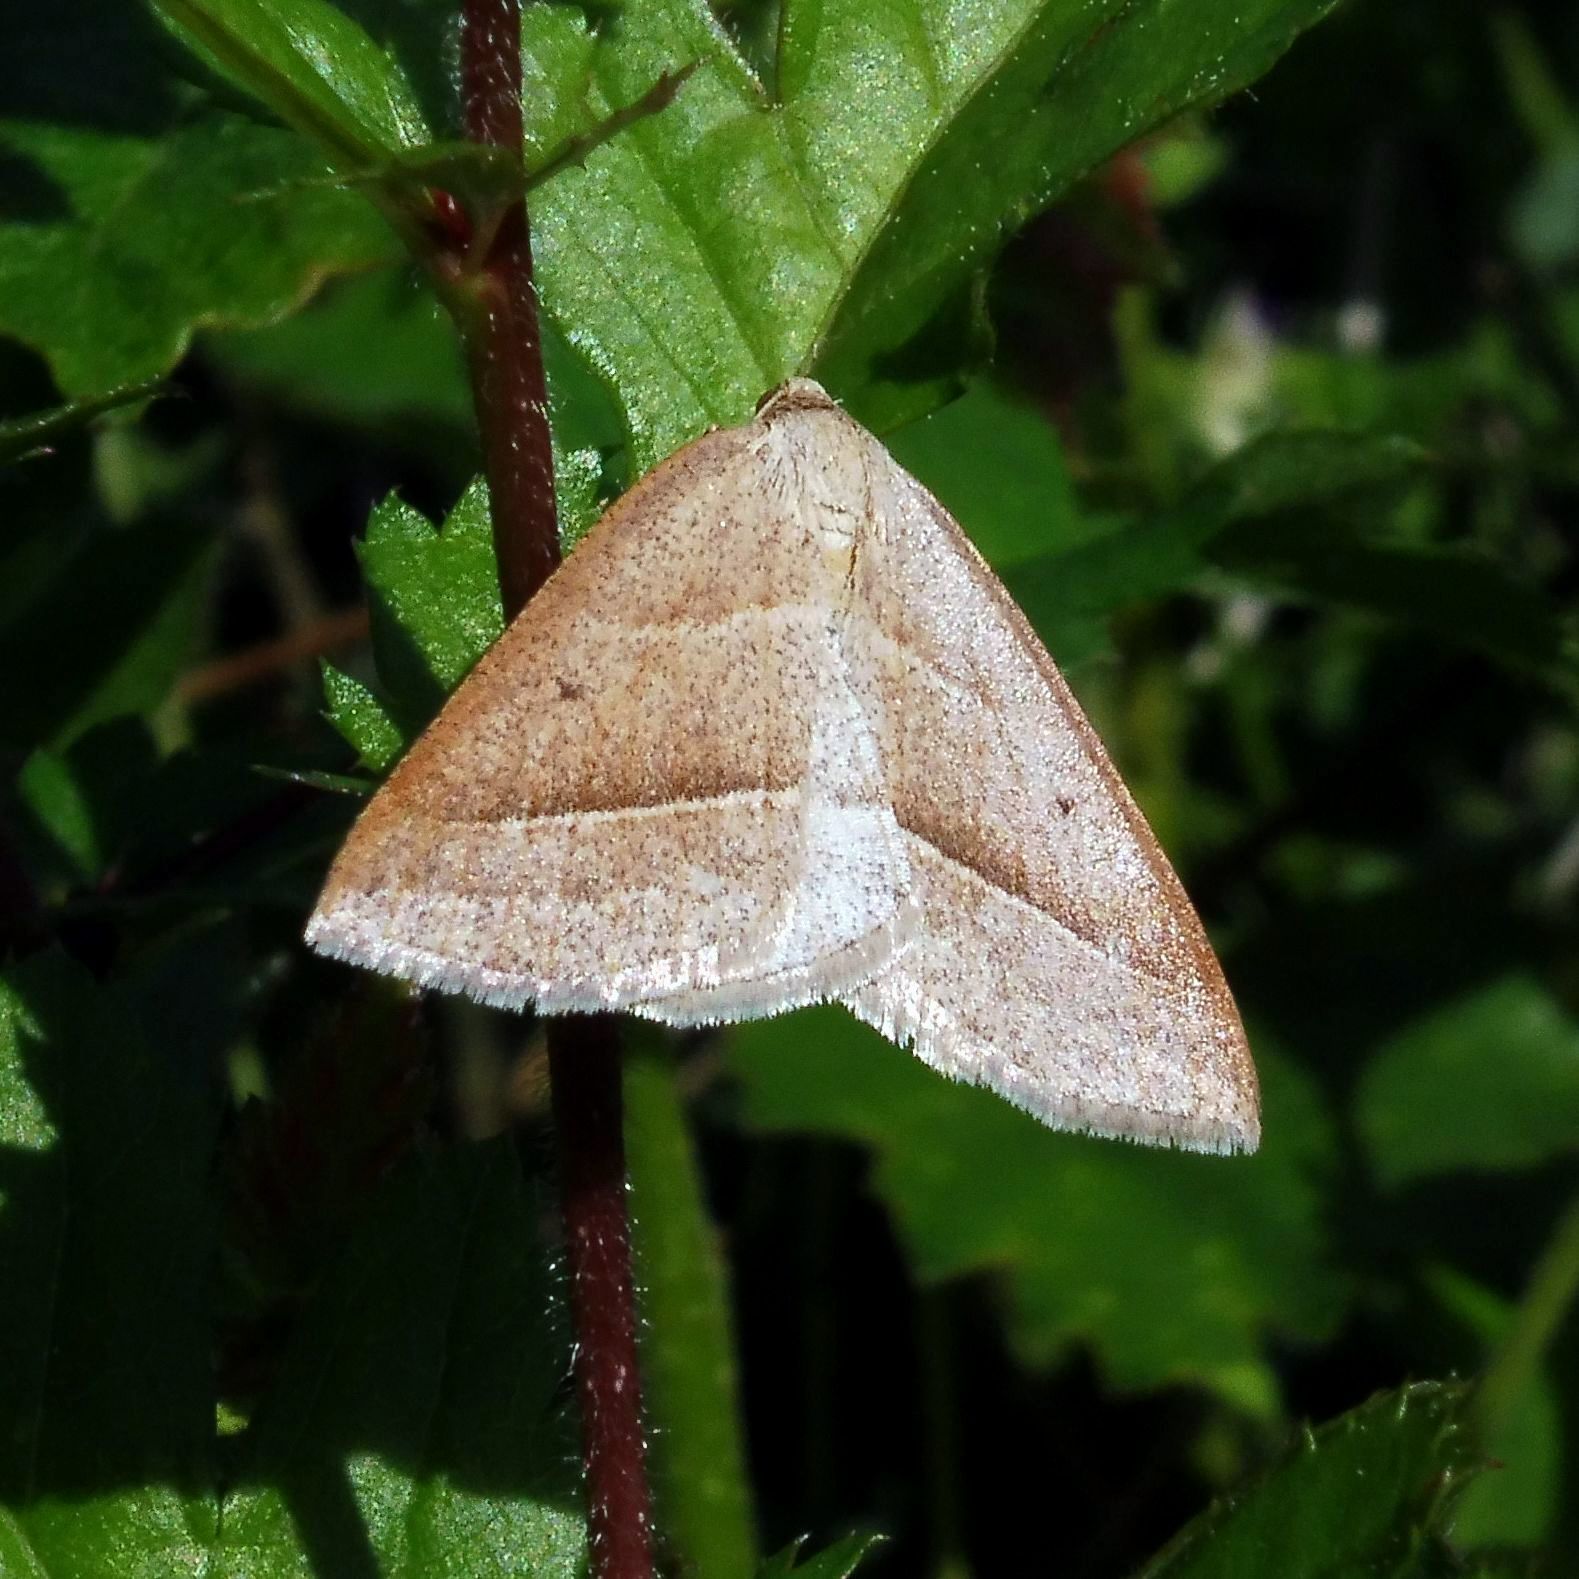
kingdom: Animalia
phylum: Arthropoda
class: Insecta
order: Lepidoptera
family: Pterophoridae
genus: Pterophorus
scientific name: Pterophorus Petrophora chlorosata
